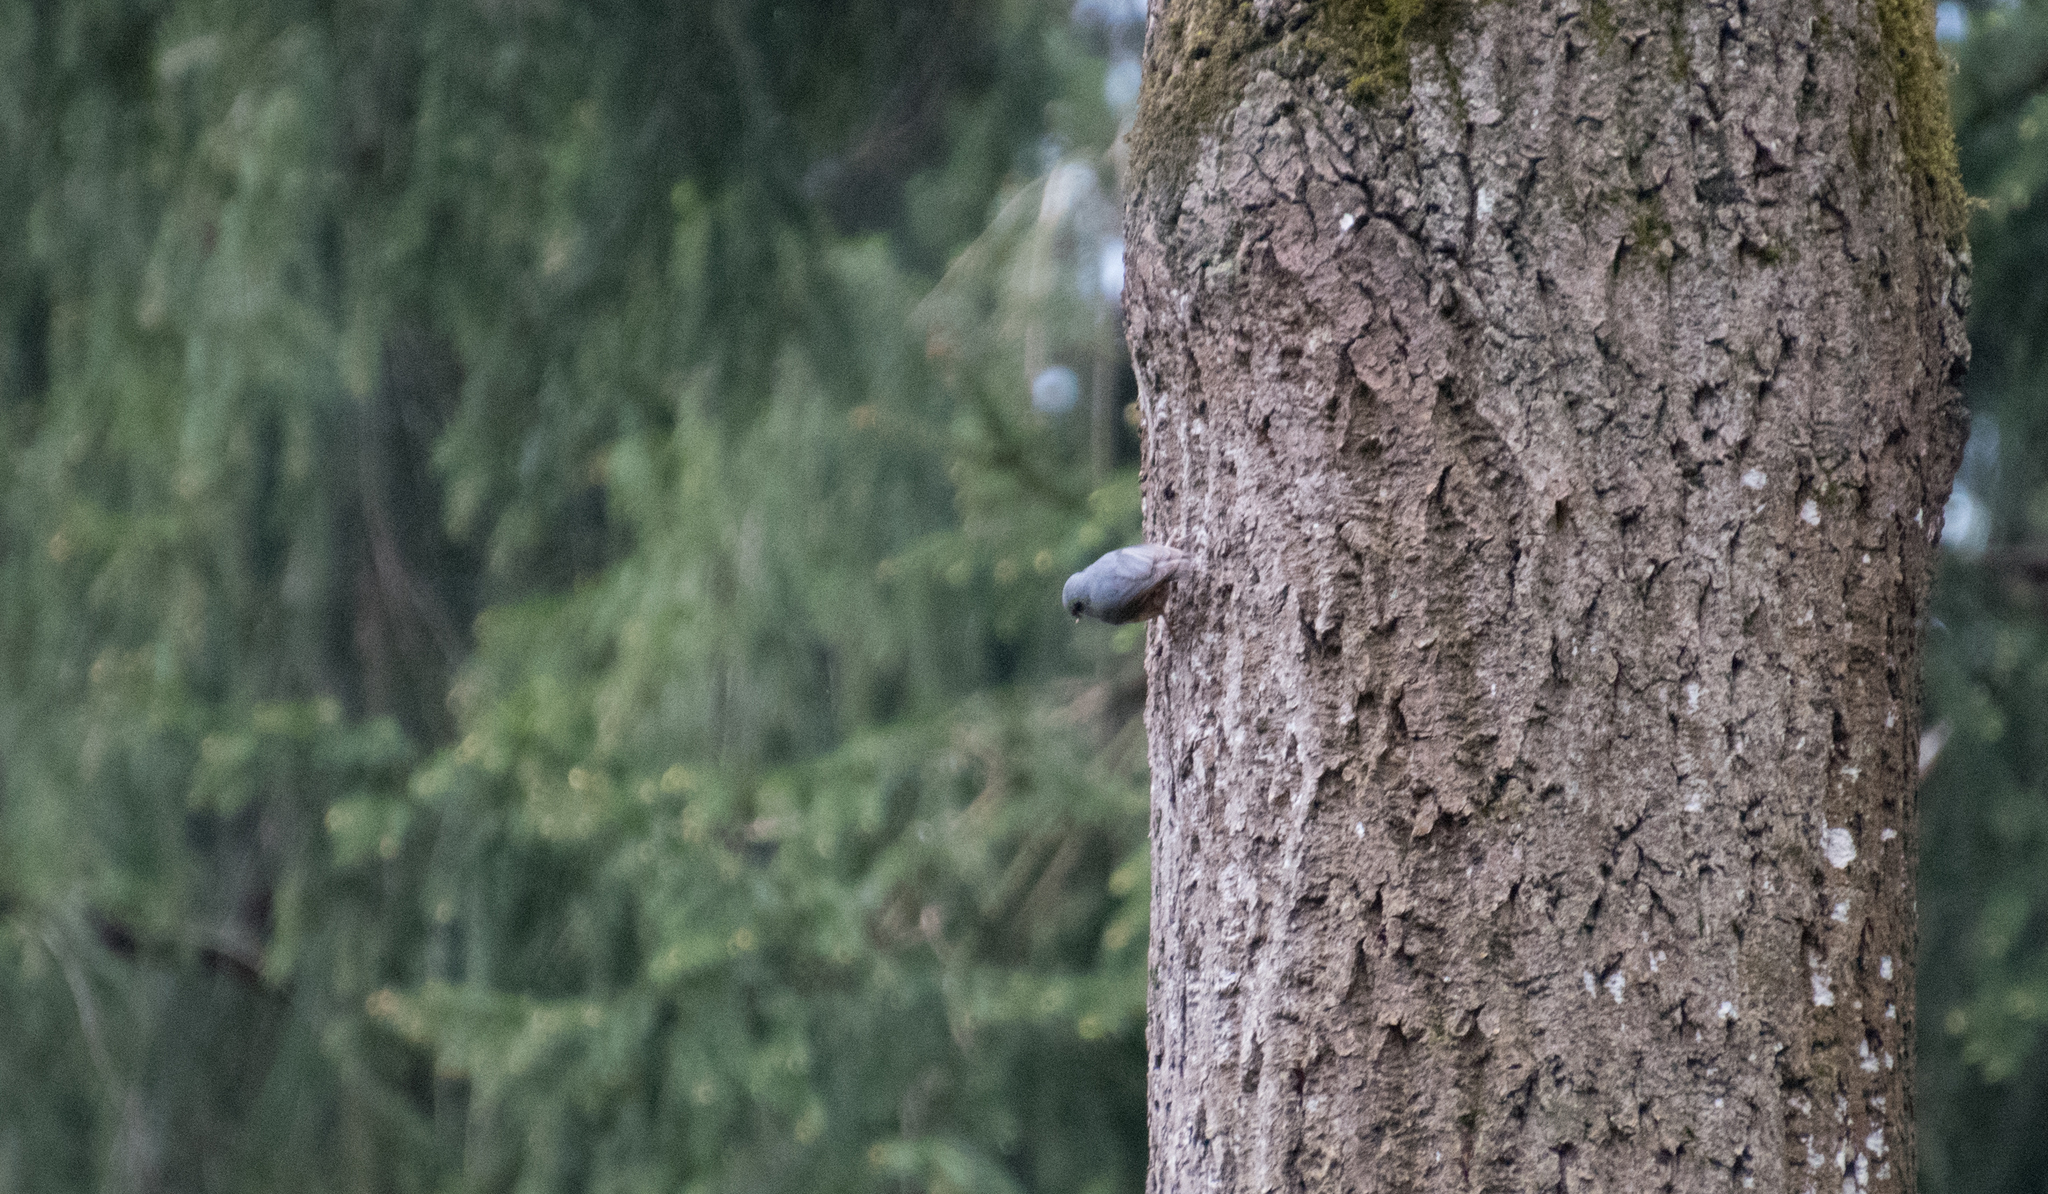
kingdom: Animalia
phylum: Chordata
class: Aves
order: Passeriformes
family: Sittidae
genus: Sitta
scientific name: Sitta europaea
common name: Eurasian nuthatch
